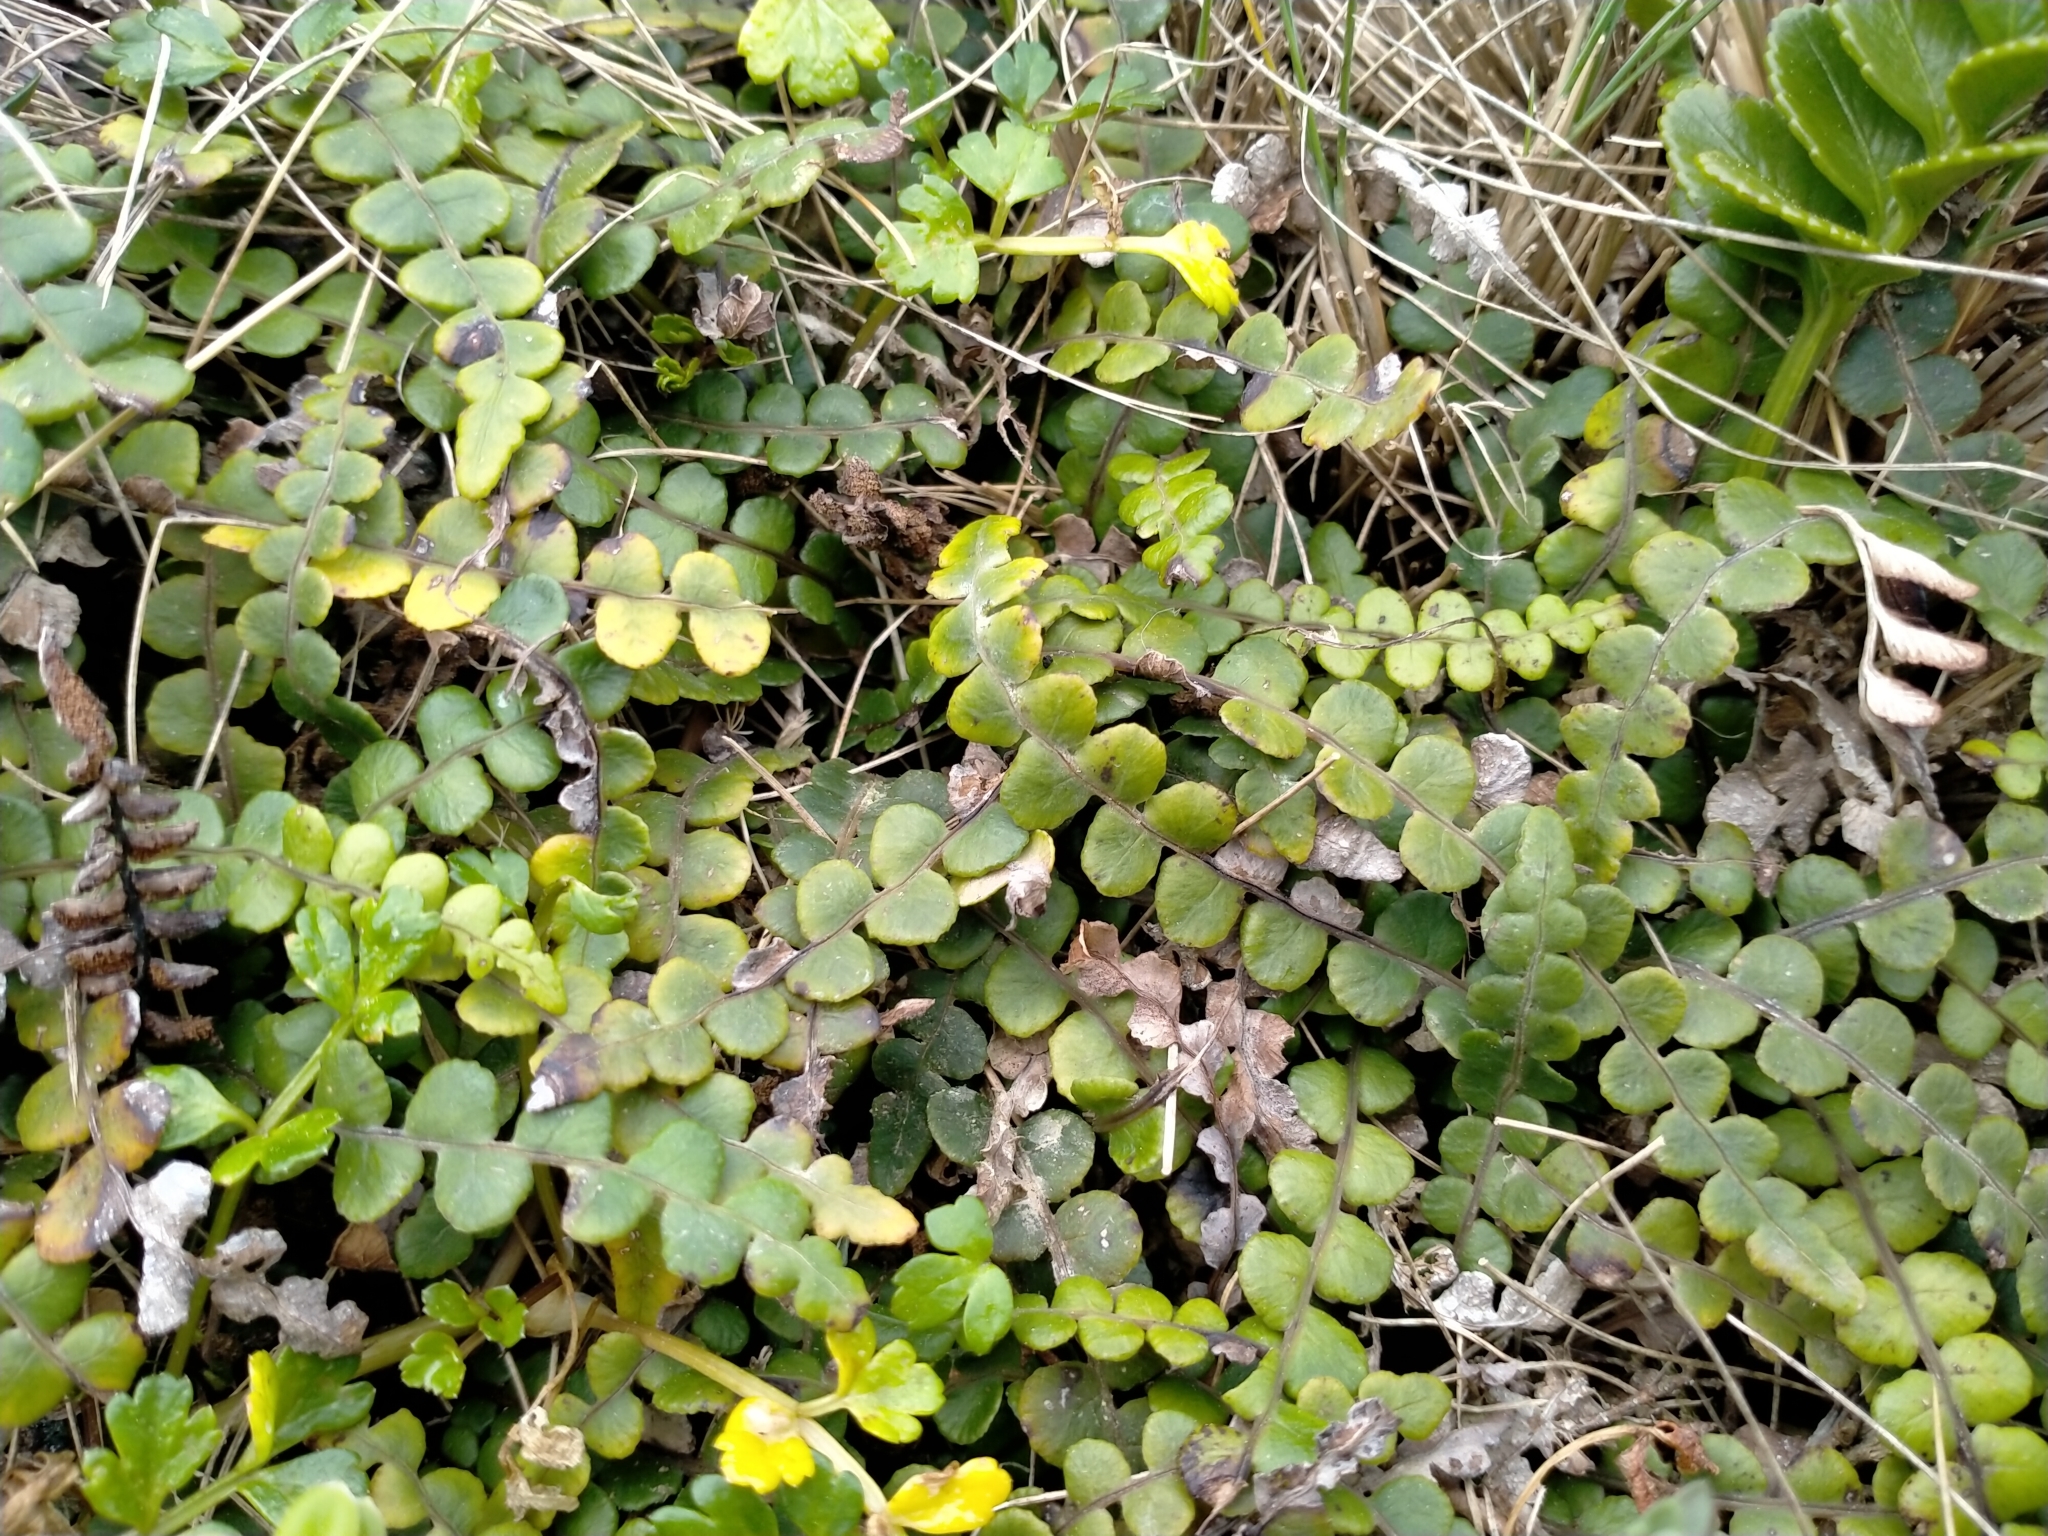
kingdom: Plantae
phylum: Tracheophyta
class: Polypodiopsida
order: Polypodiales
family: Blechnaceae
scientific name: Blechnaceae
